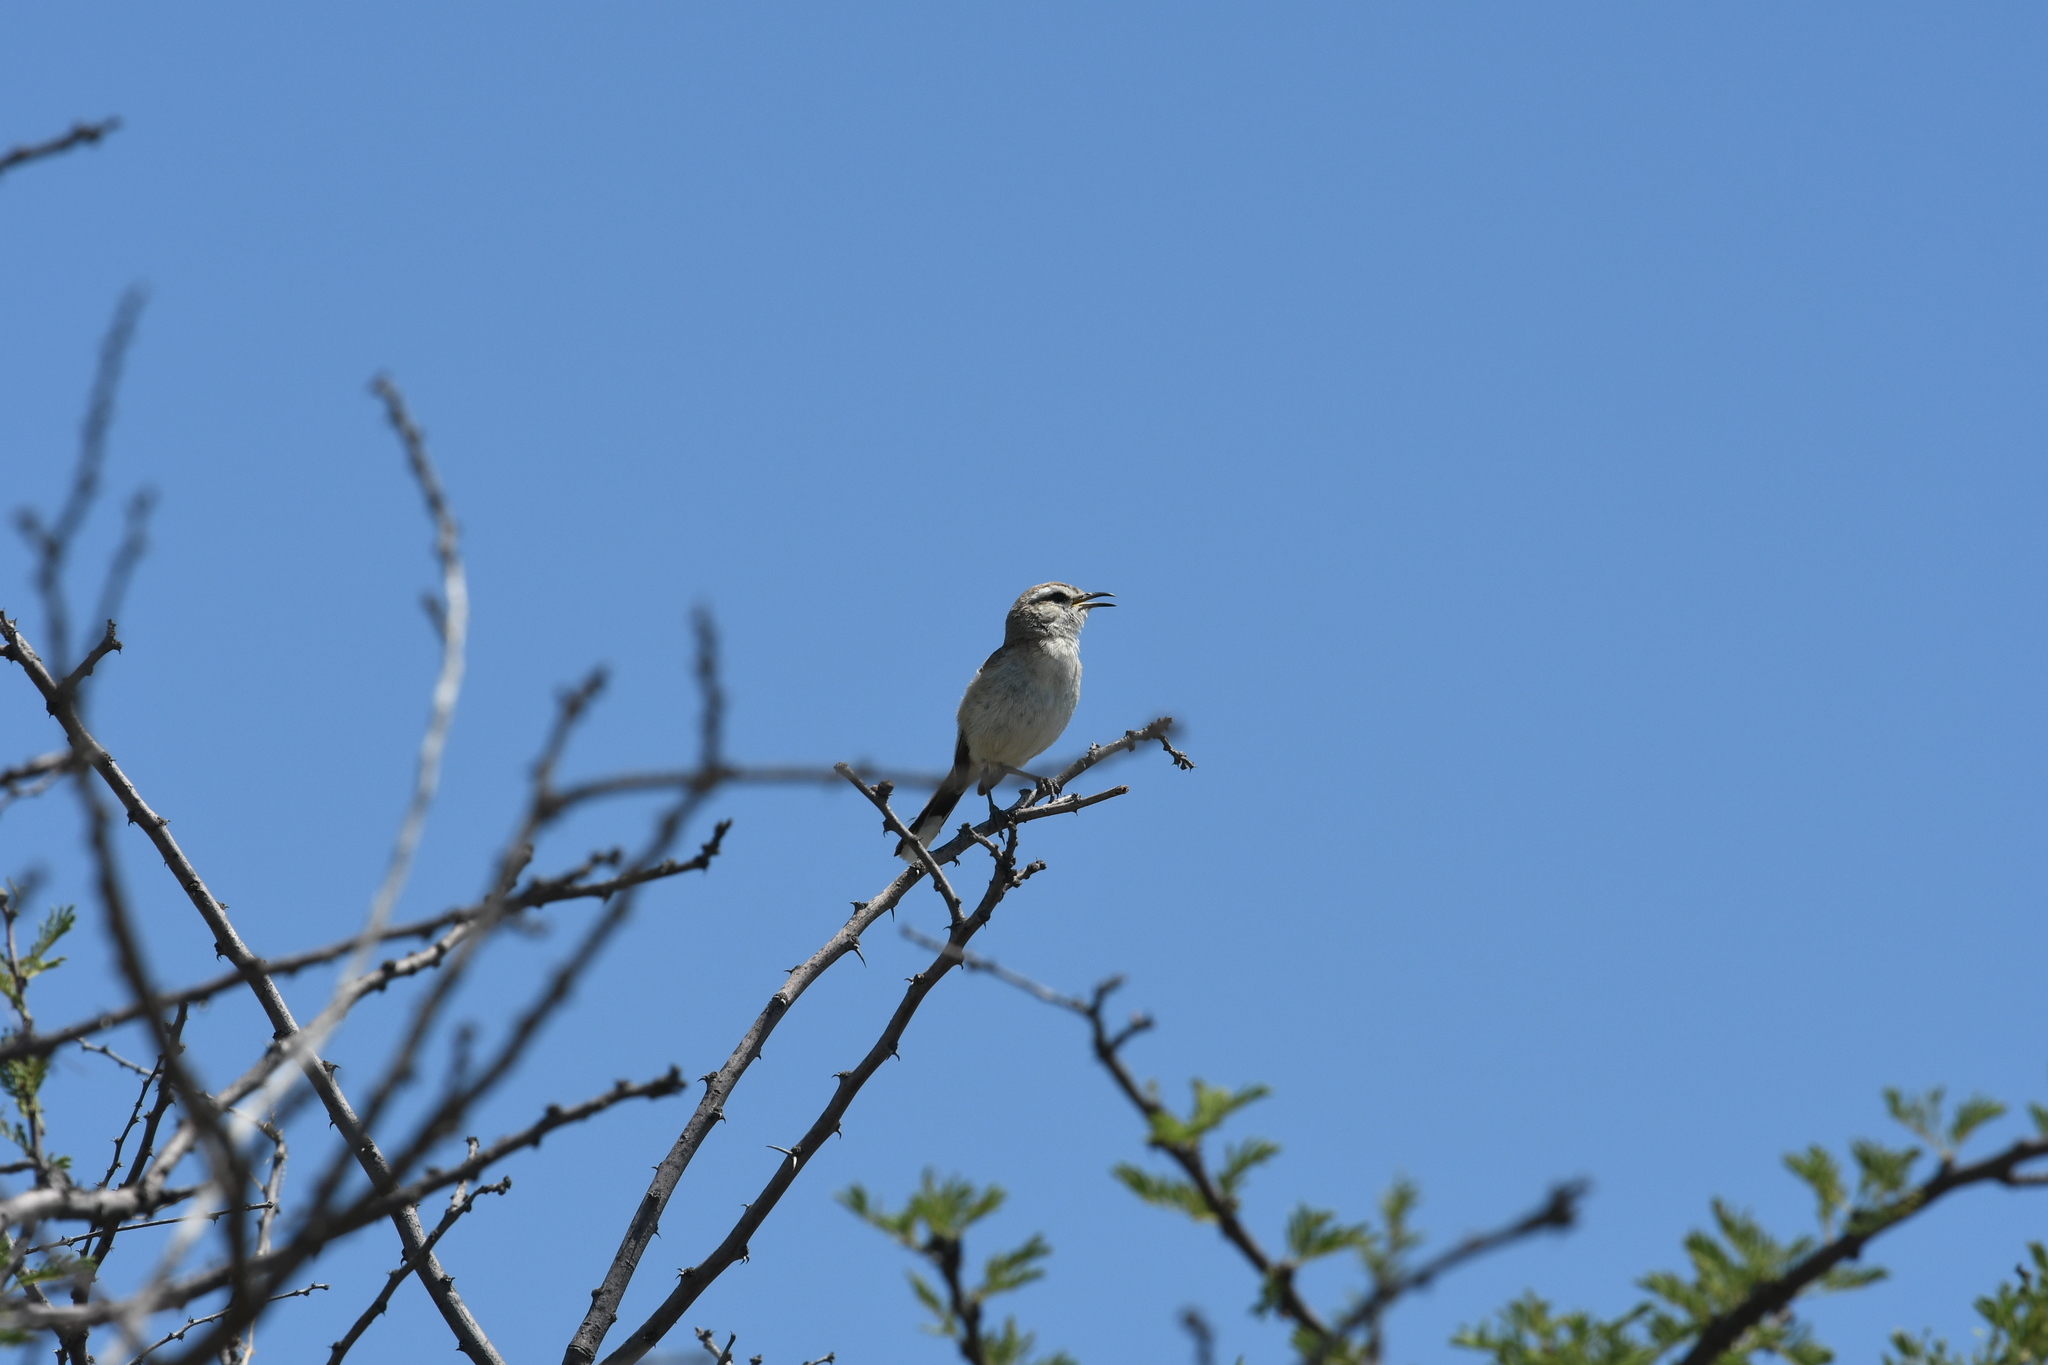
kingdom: Animalia
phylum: Chordata
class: Aves
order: Passeriformes
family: Muscicapidae
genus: Erythropygia
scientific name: Erythropygia paena
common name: Kalahari scrub robin
